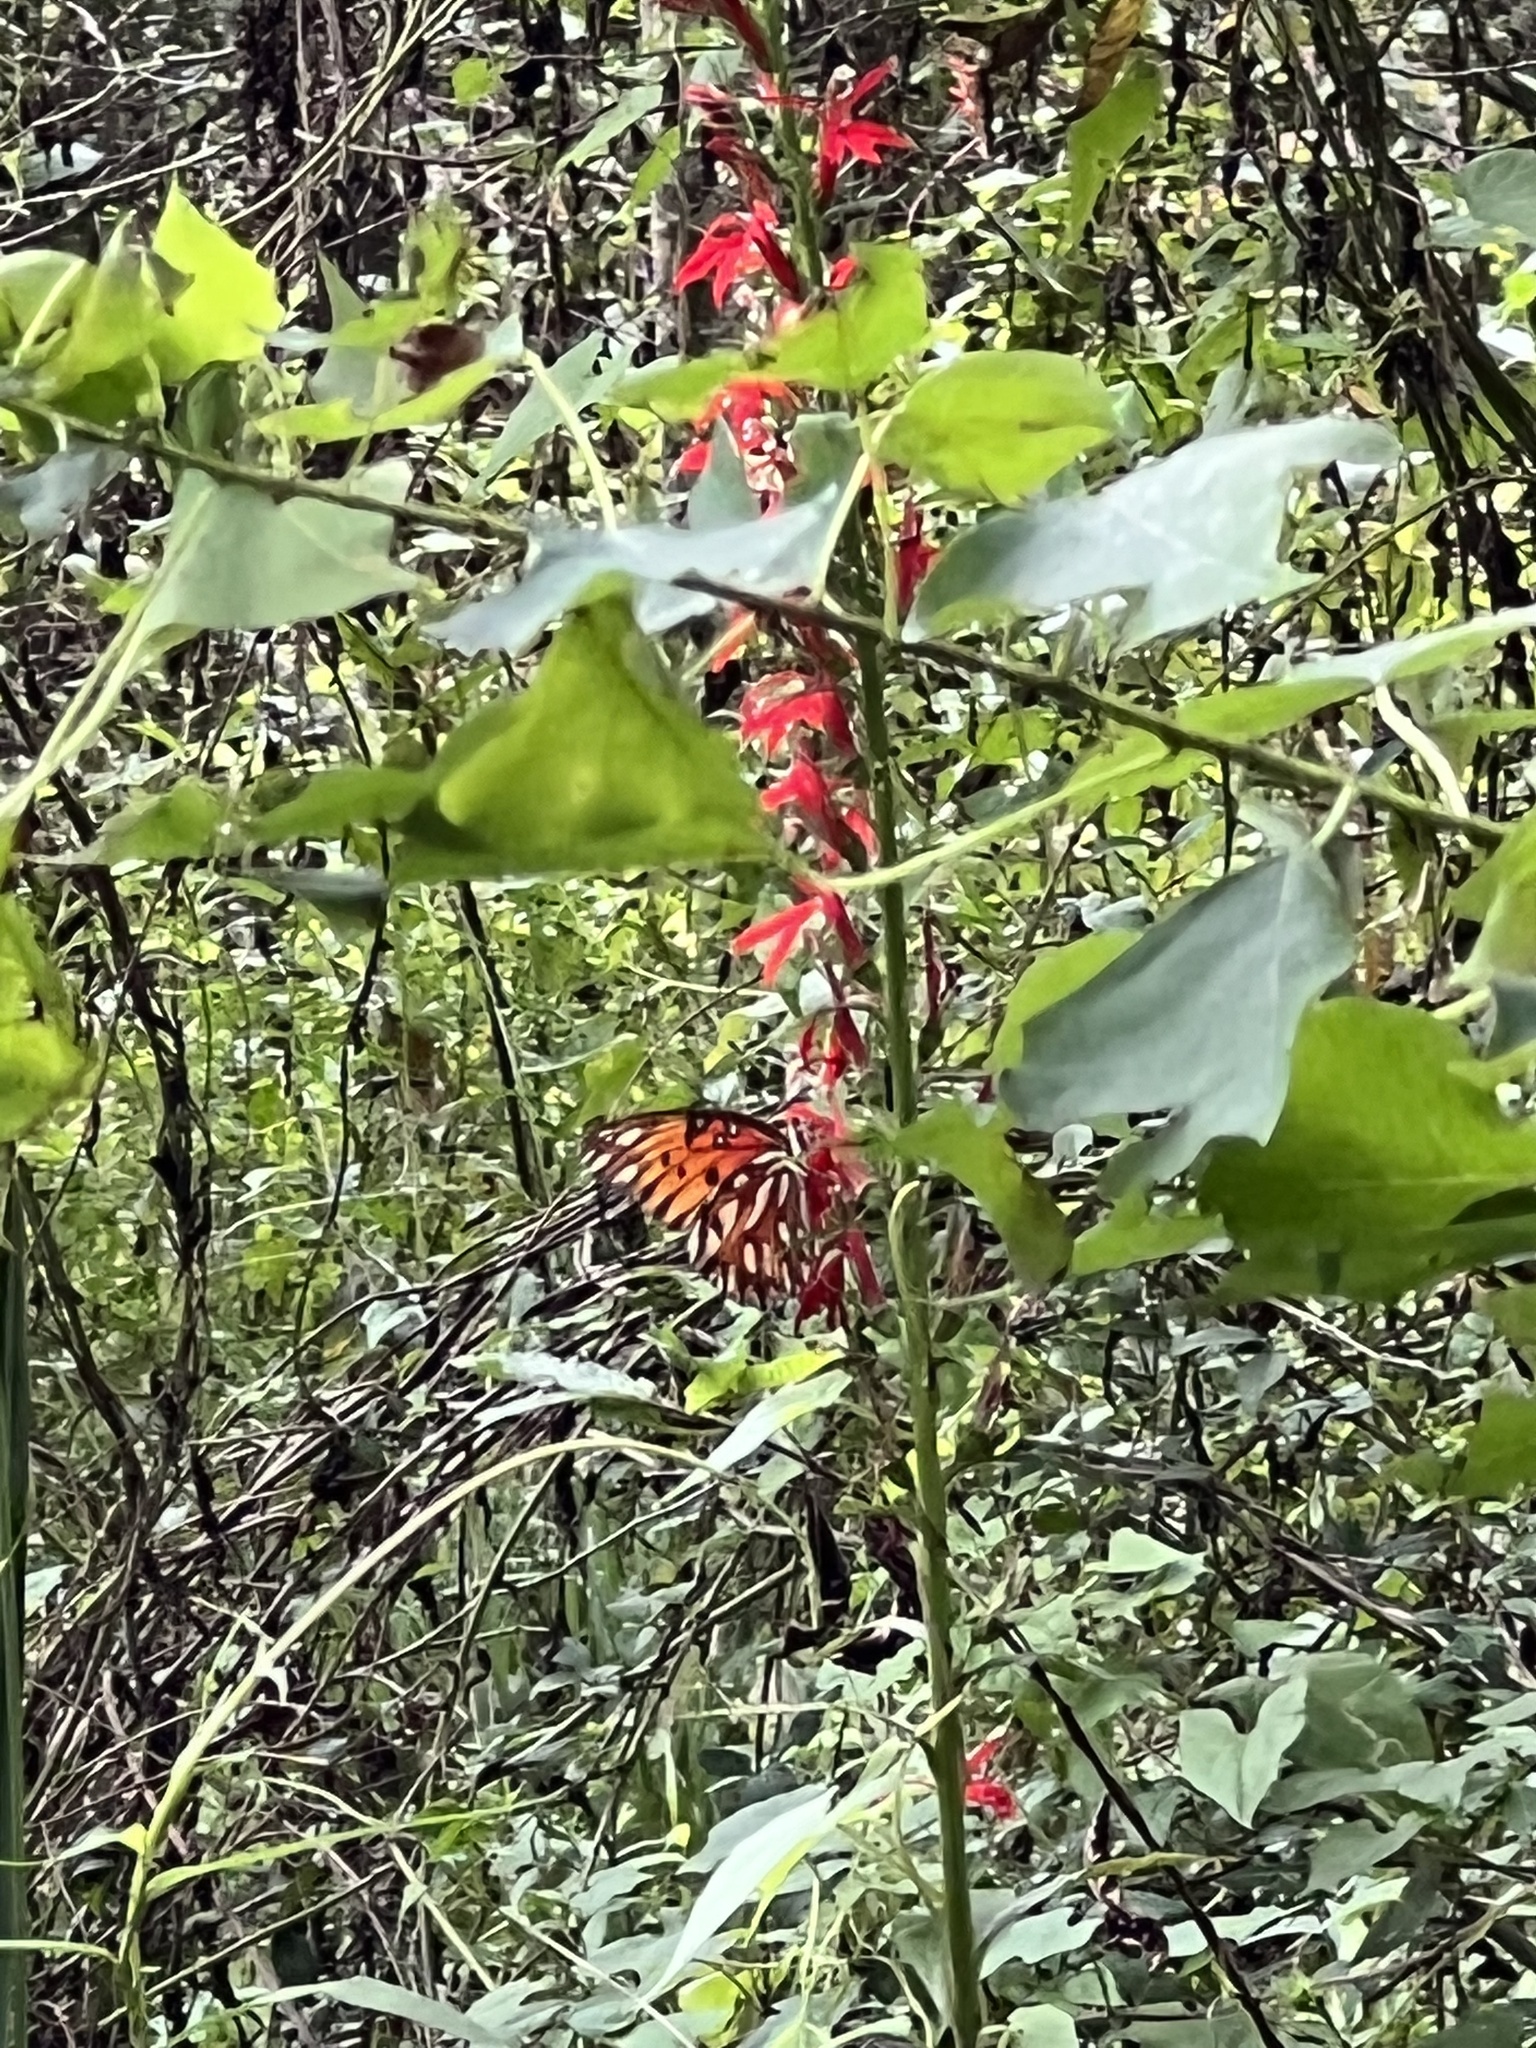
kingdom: Animalia
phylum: Arthropoda
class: Insecta
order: Lepidoptera
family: Nymphalidae
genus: Dione
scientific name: Dione vanillae
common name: Gulf fritillary
